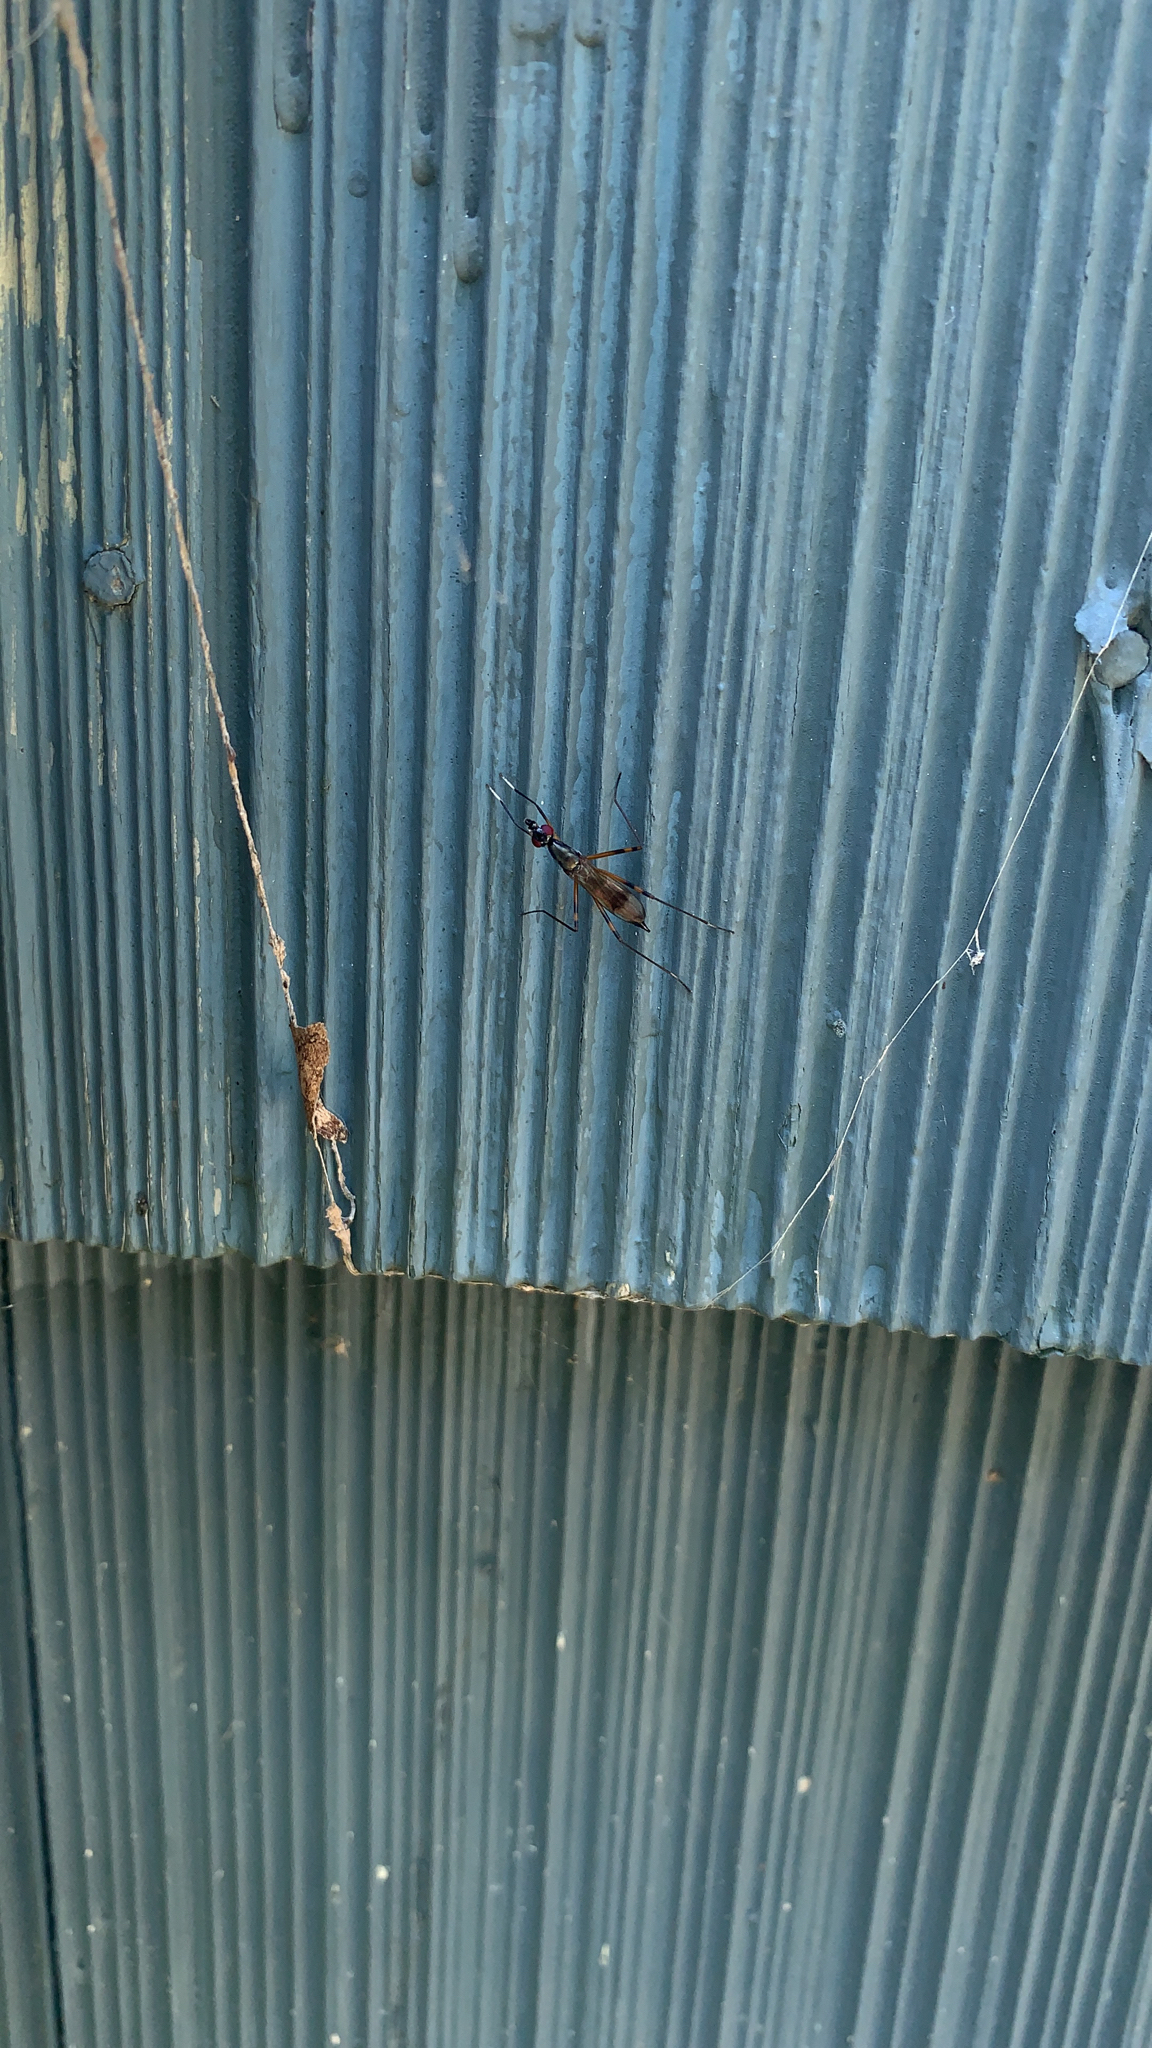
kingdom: Animalia
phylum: Arthropoda
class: Insecta
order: Diptera
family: Micropezidae
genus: Rainieria
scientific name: Rainieria antennaepes
